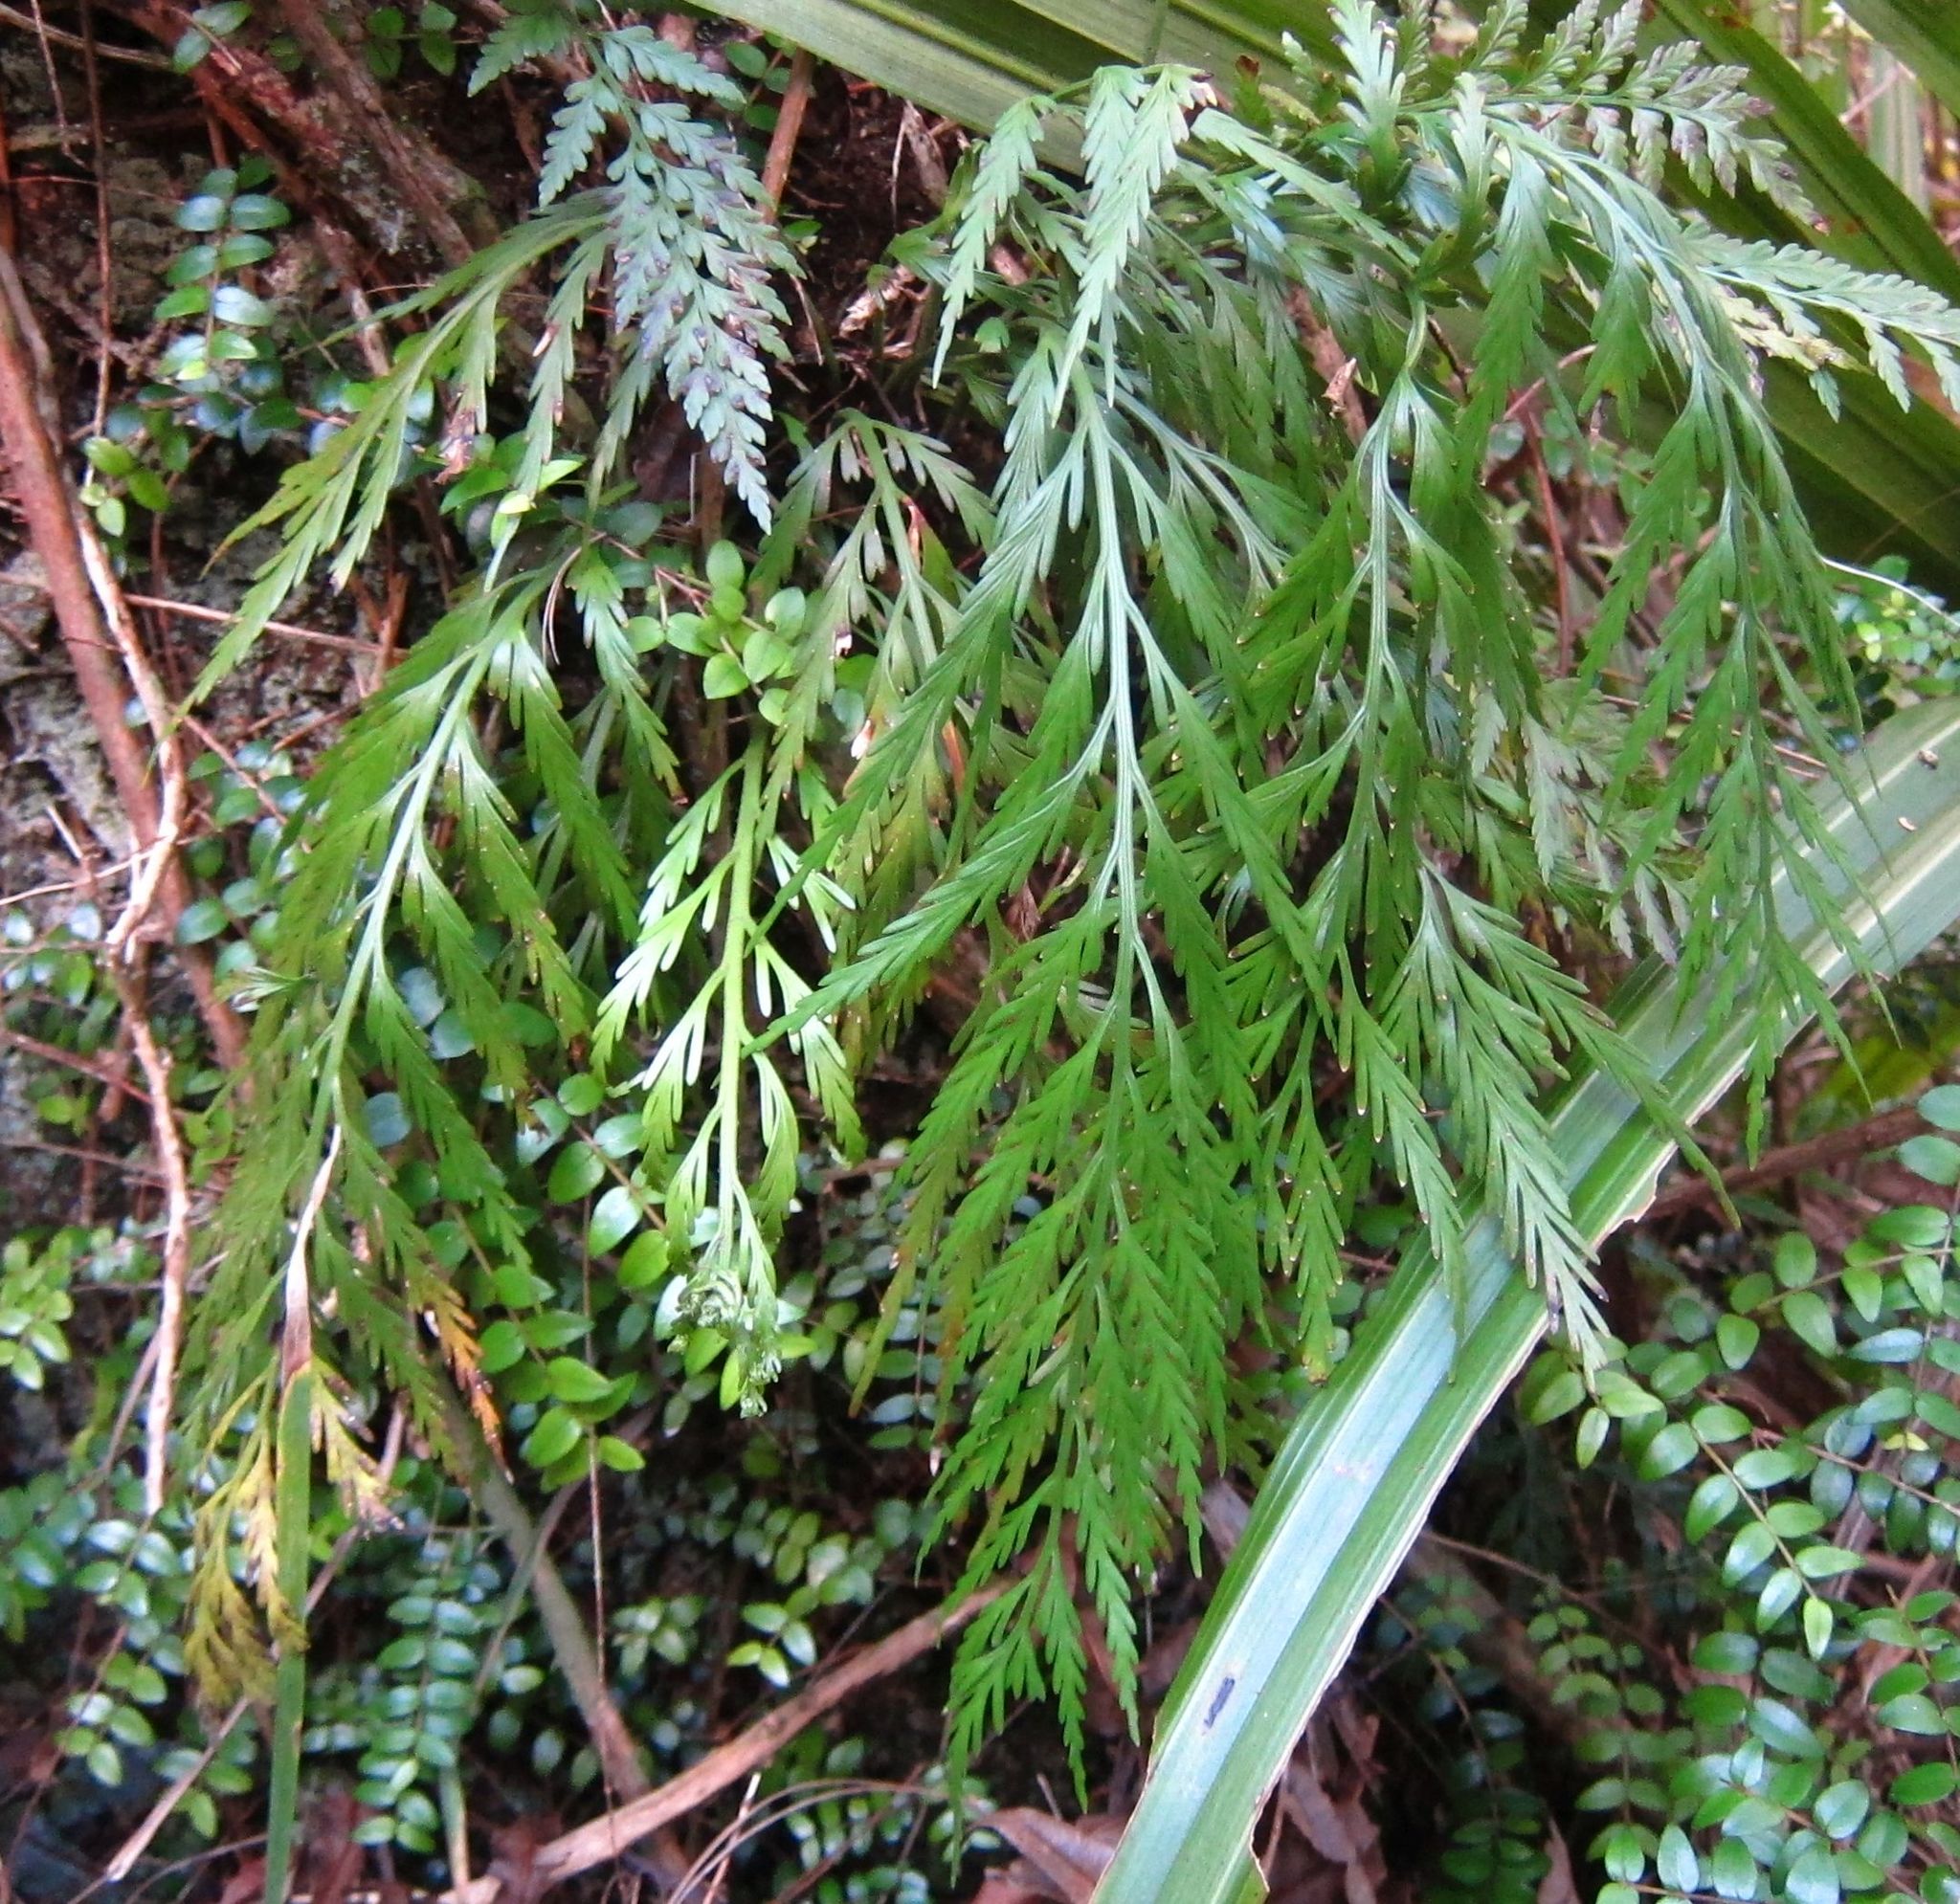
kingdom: Plantae
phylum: Tracheophyta
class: Polypodiopsida
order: Polypodiales
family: Aspleniaceae
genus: Asplenium
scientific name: Asplenium flaccidum
